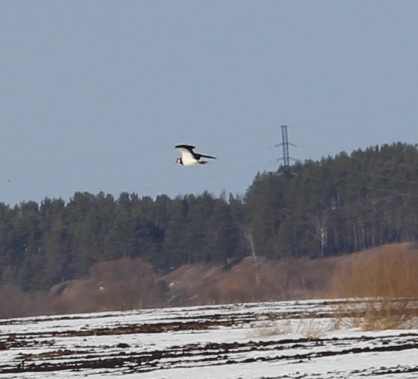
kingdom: Animalia
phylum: Chordata
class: Aves
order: Charadriiformes
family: Charadriidae
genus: Vanellus
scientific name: Vanellus vanellus
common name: Northern lapwing
